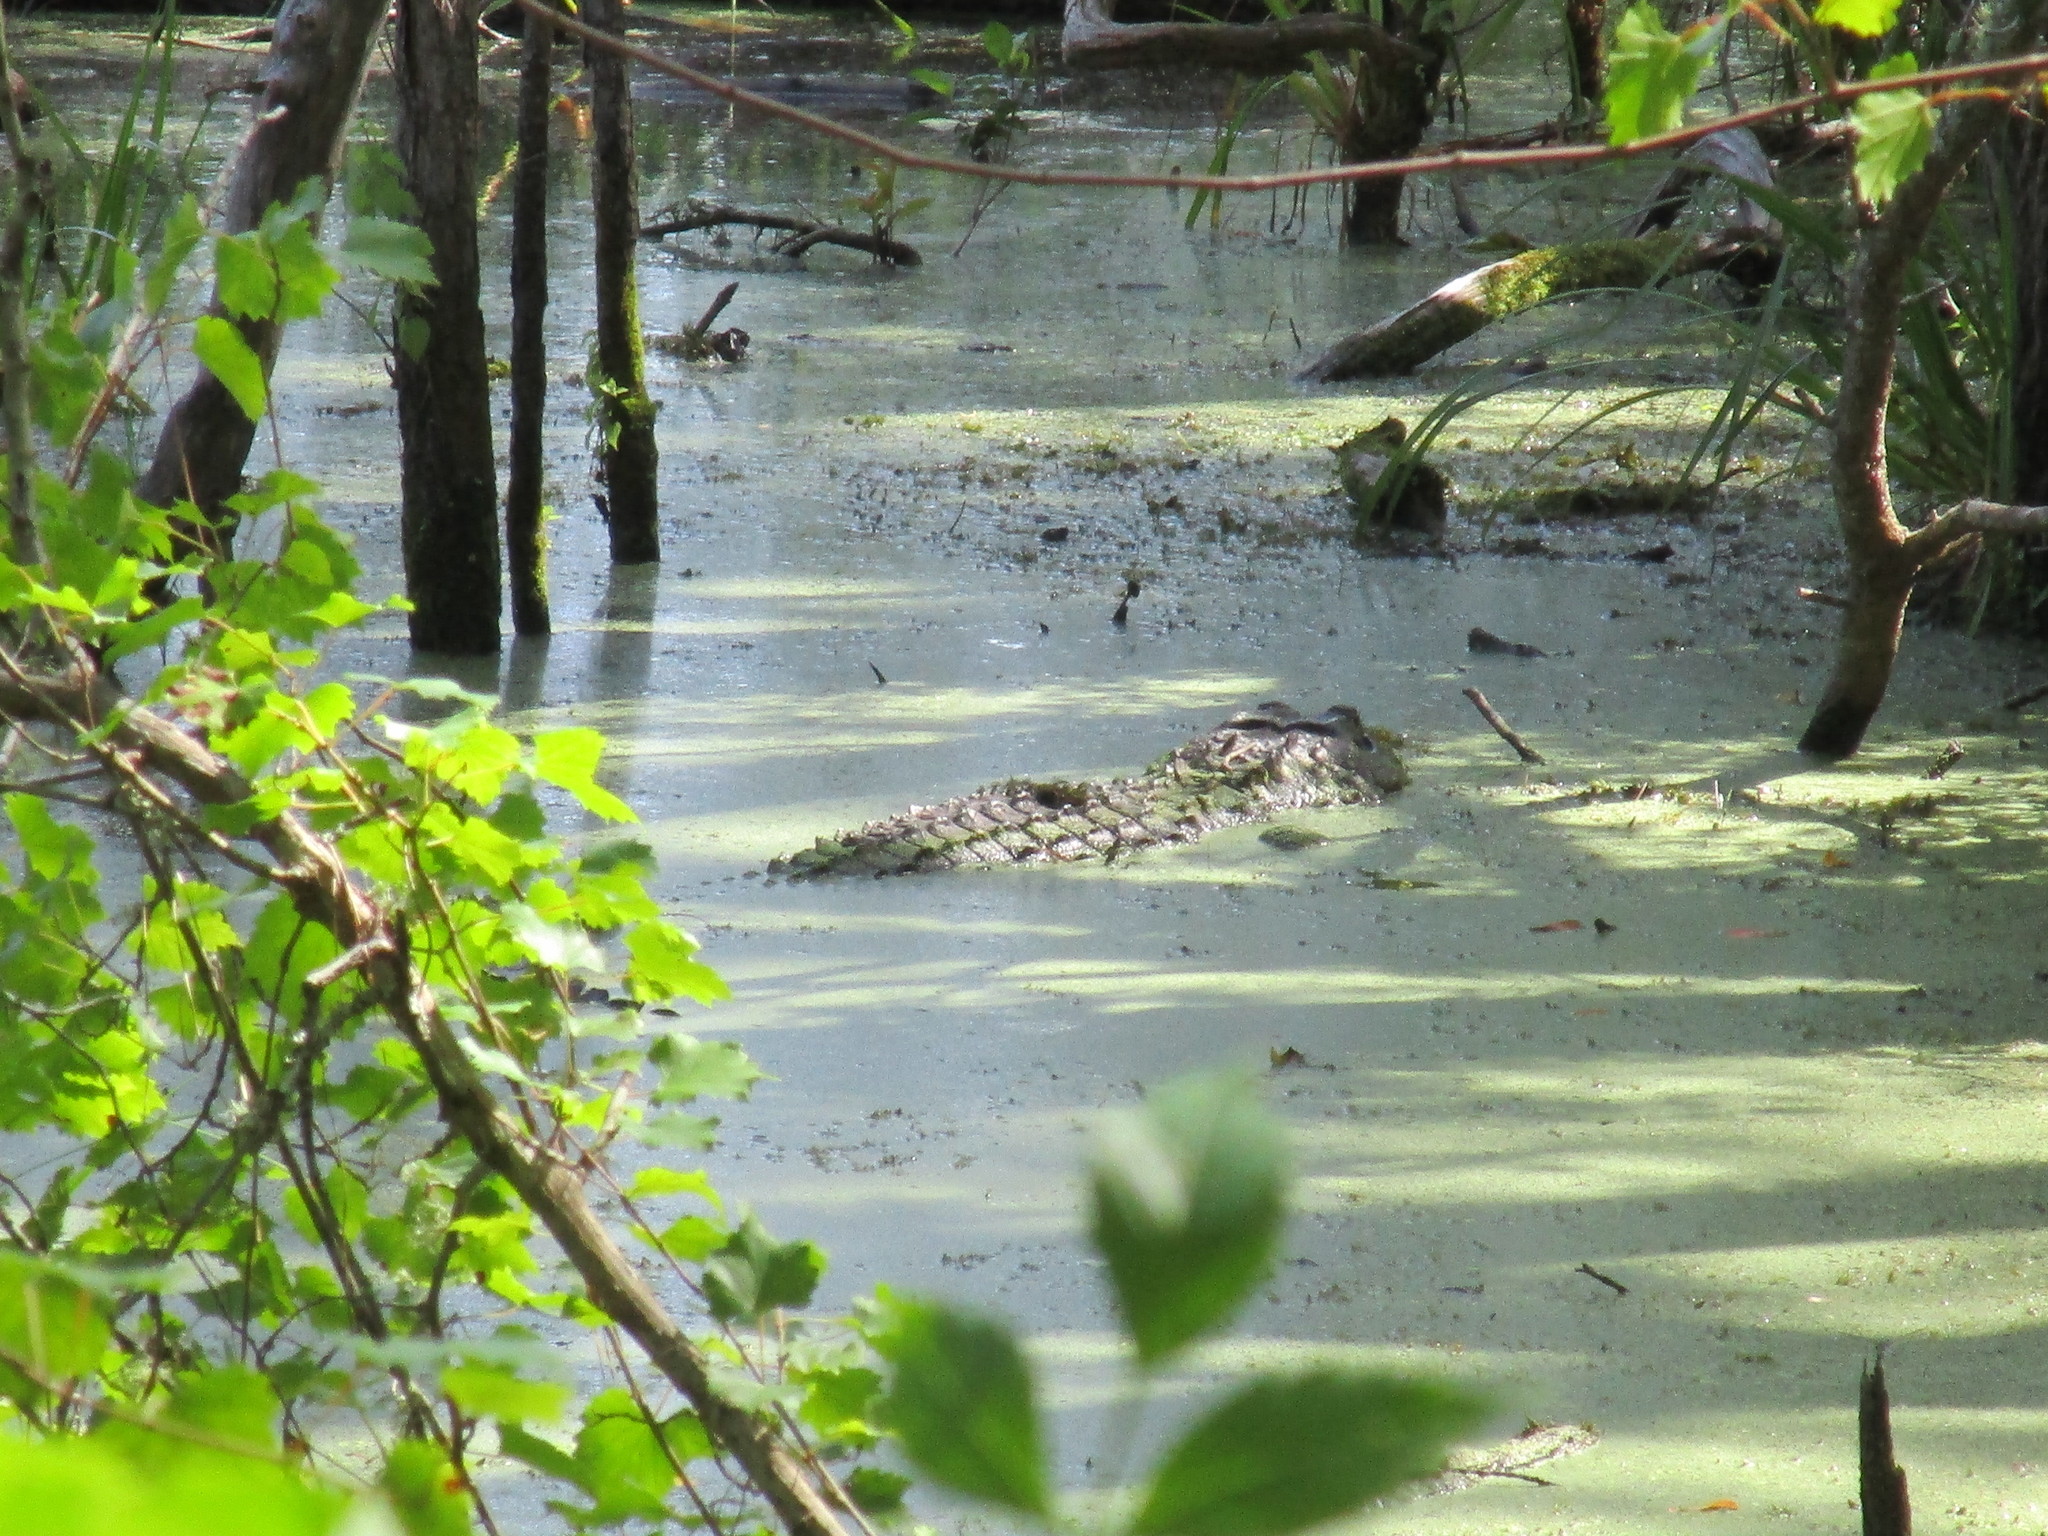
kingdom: Animalia
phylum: Chordata
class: Crocodylia
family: Alligatoridae
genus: Alligator
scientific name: Alligator mississippiensis
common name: American alligator
